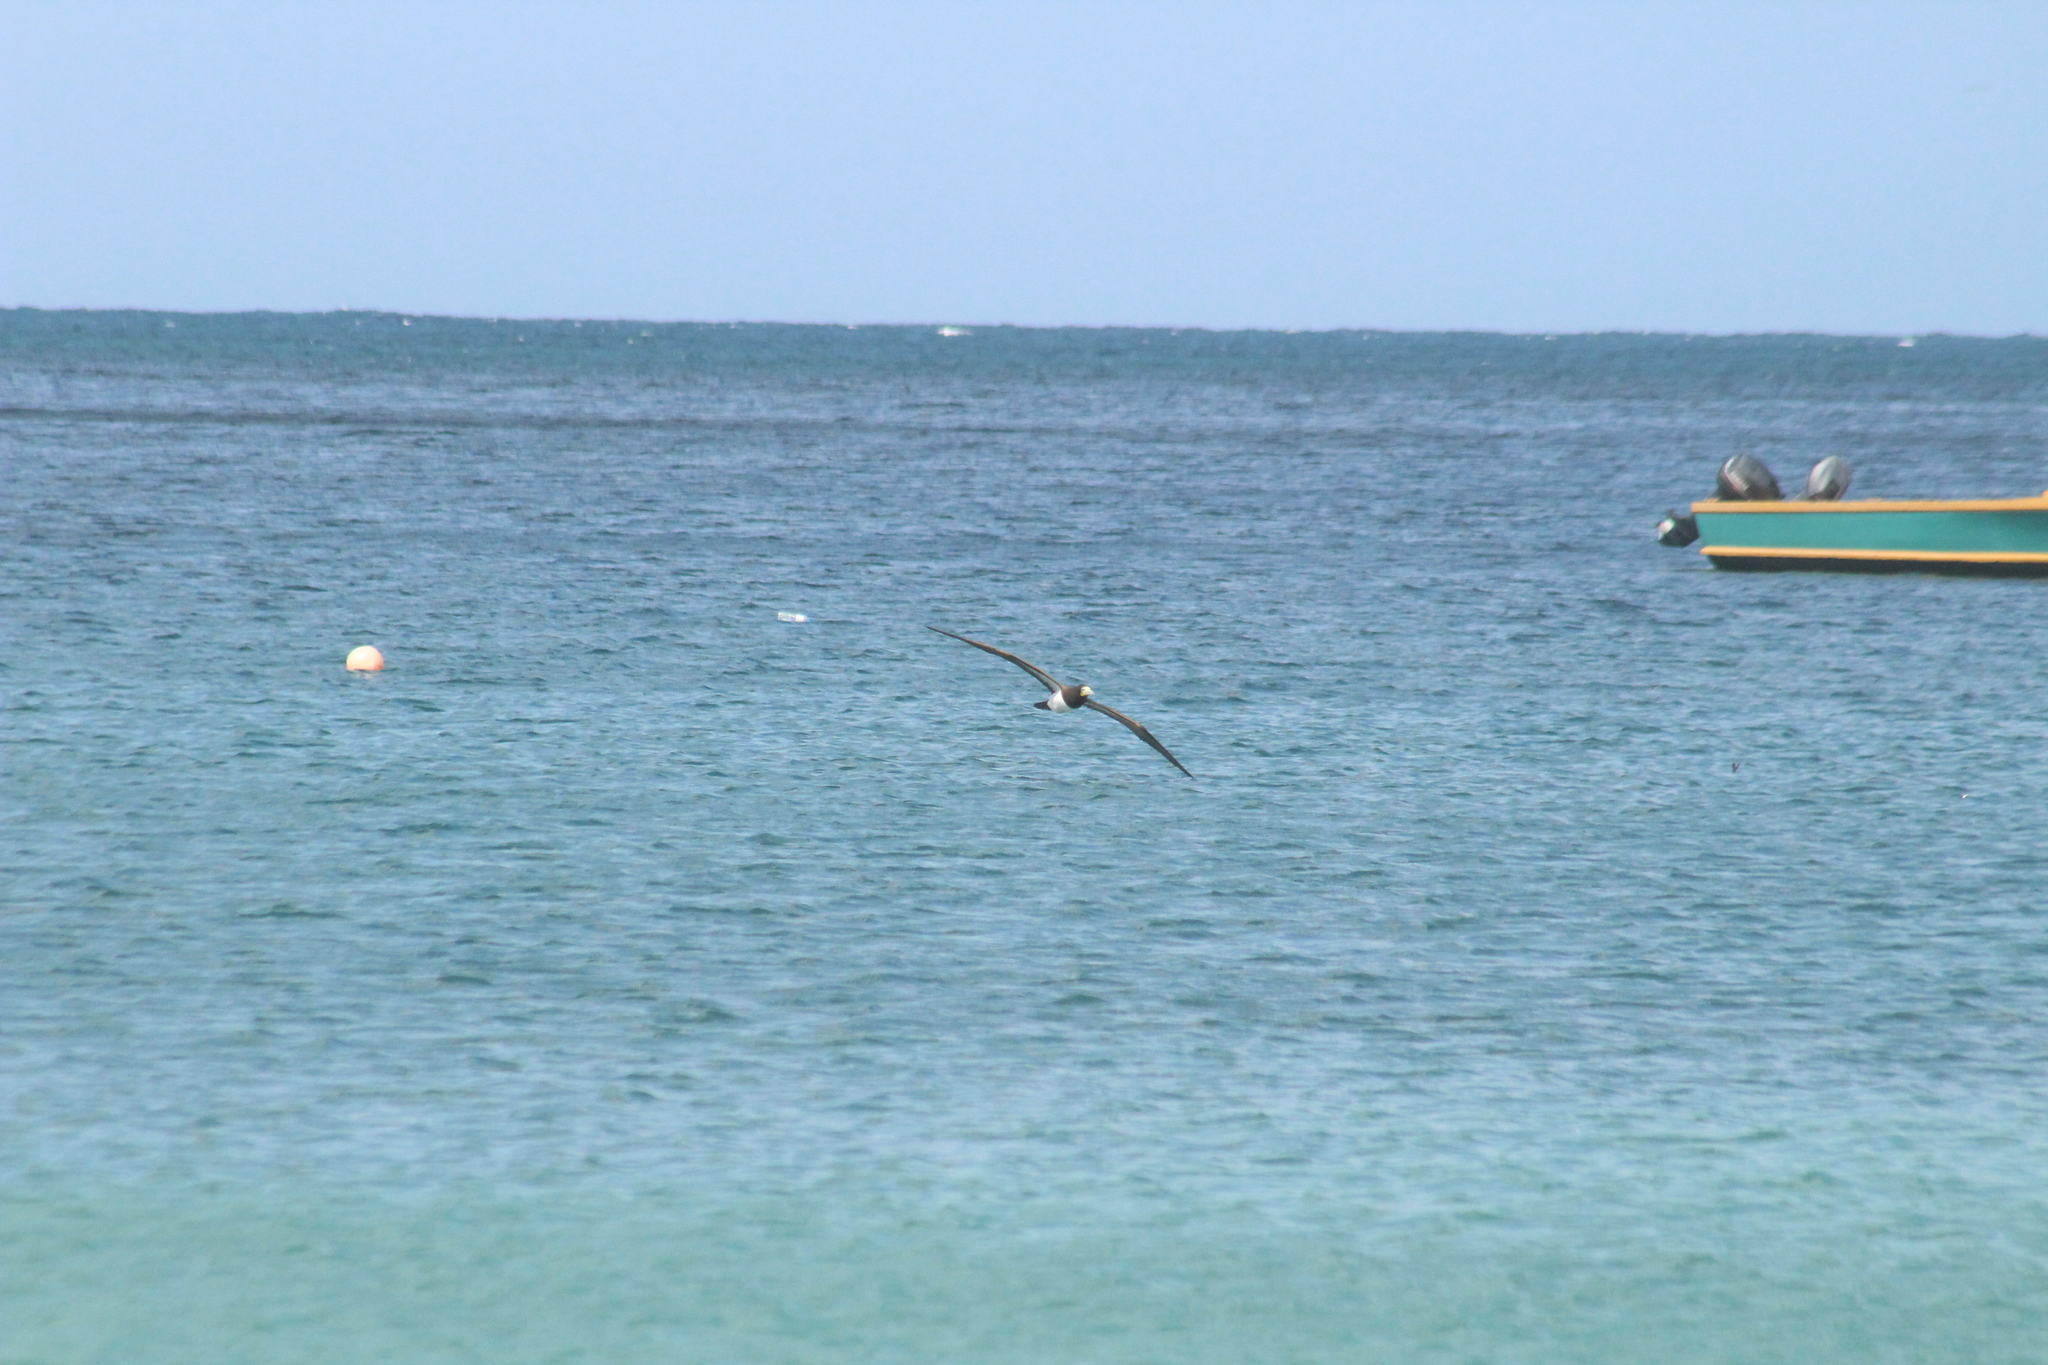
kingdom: Animalia
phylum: Chordata
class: Aves
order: Suliformes
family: Sulidae
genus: Sula
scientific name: Sula leucogaster
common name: Brown booby
